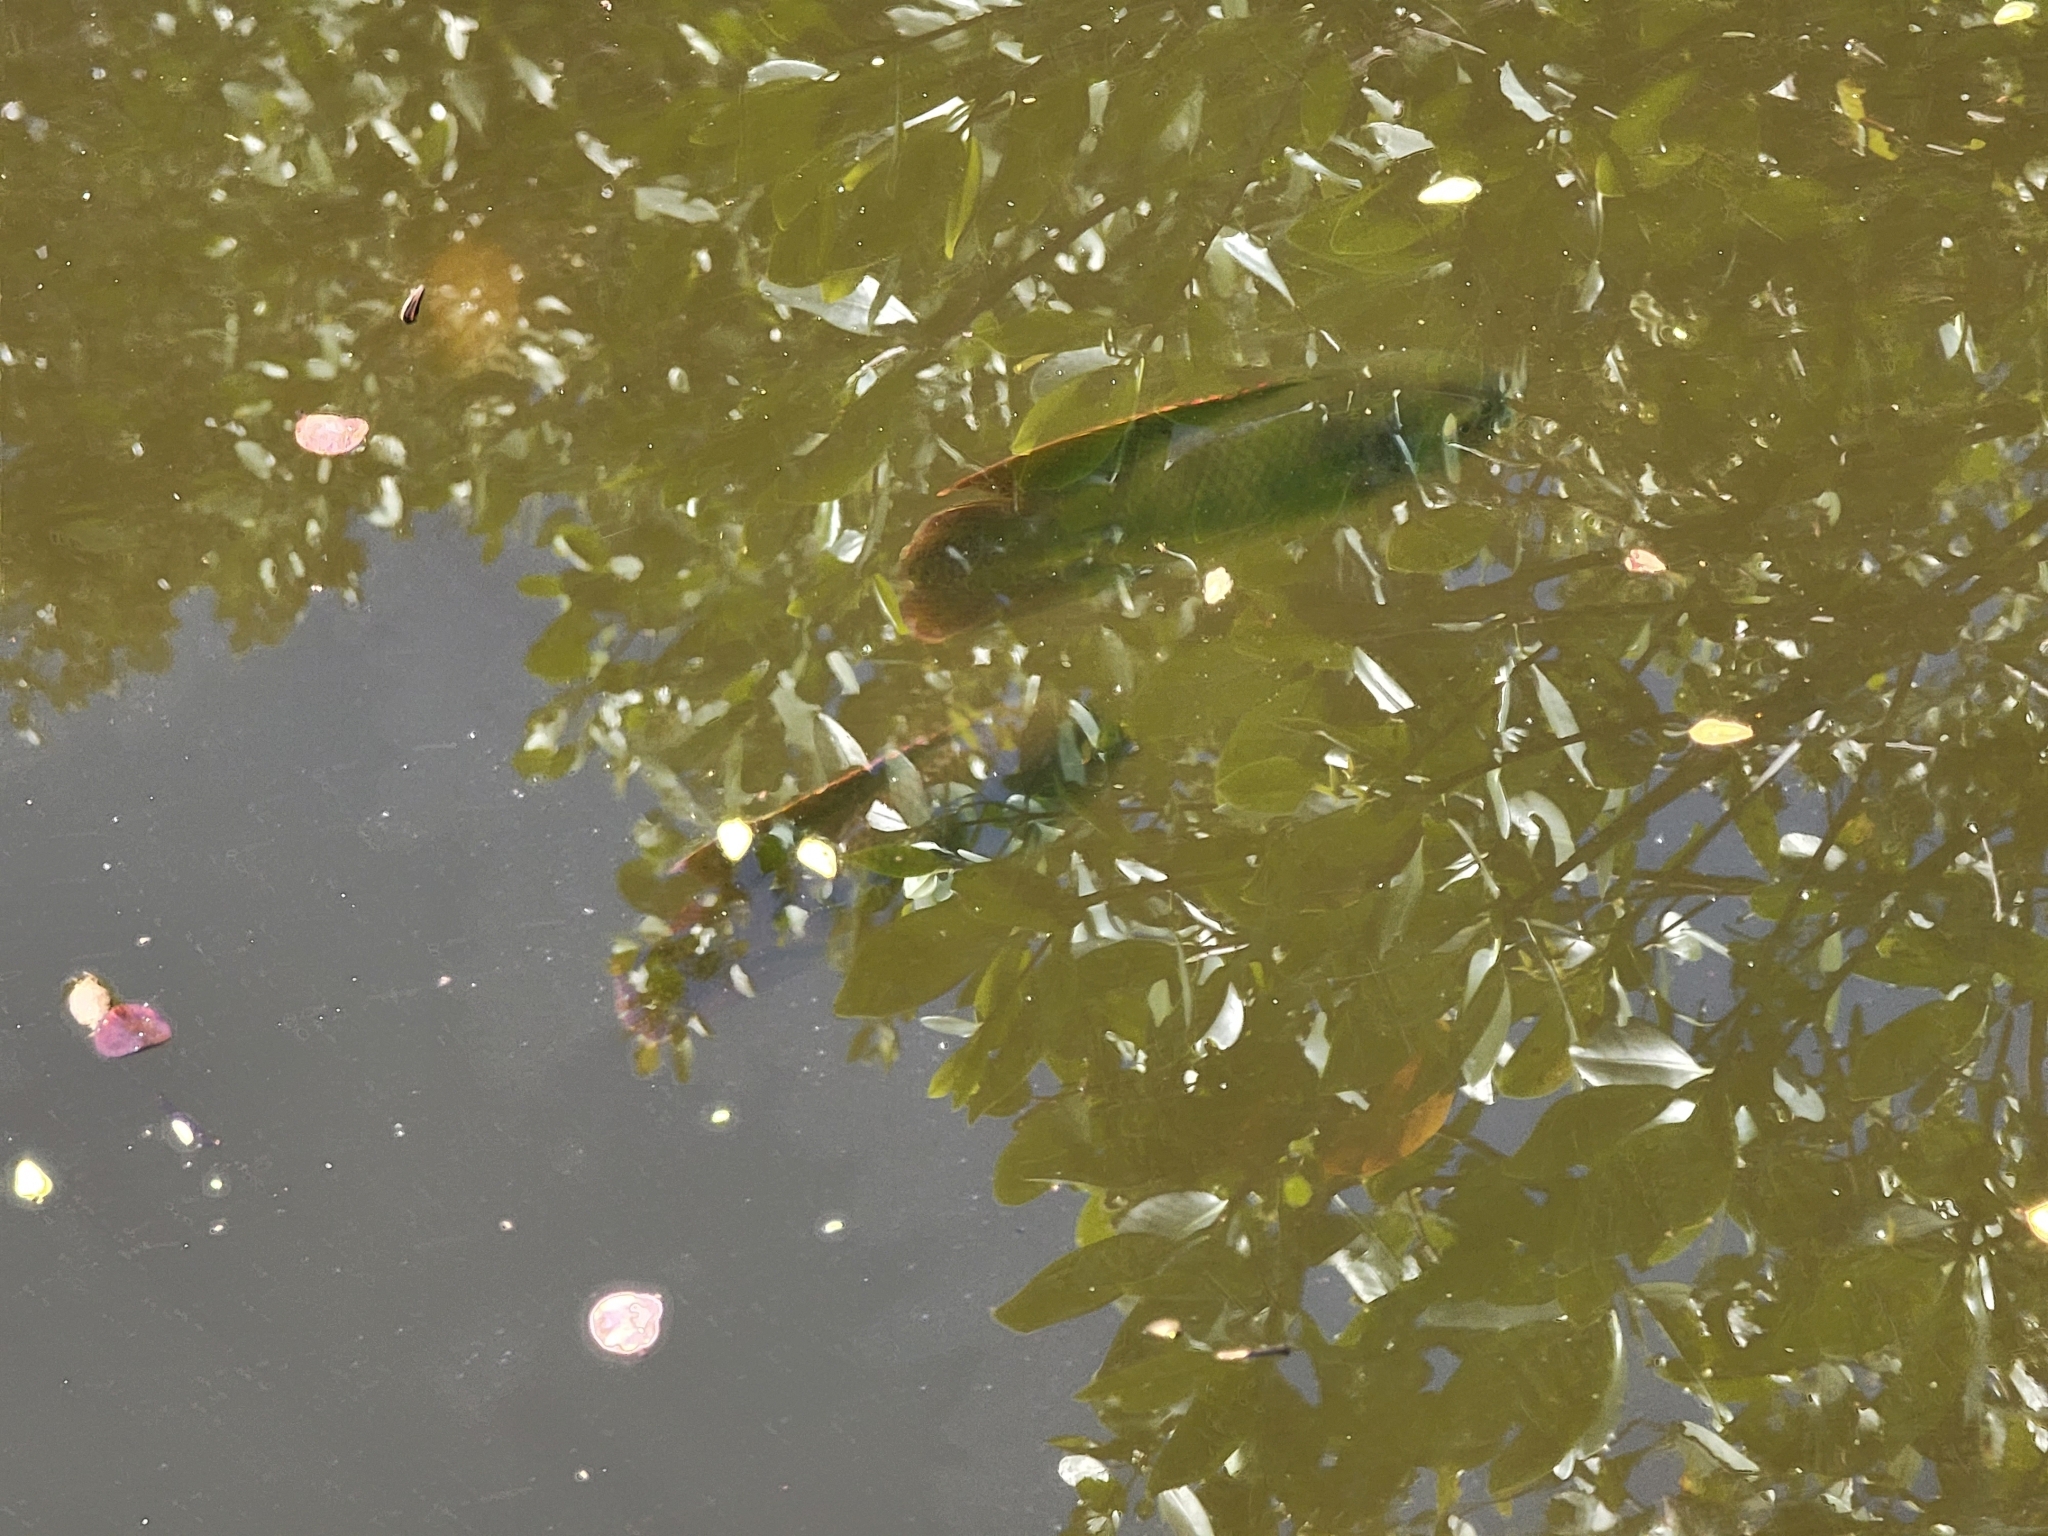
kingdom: Animalia
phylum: Chordata
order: Perciformes
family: Cichlidae
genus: Pelmatolapia
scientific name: Pelmatolapia mariae
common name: Spotted tilapia
